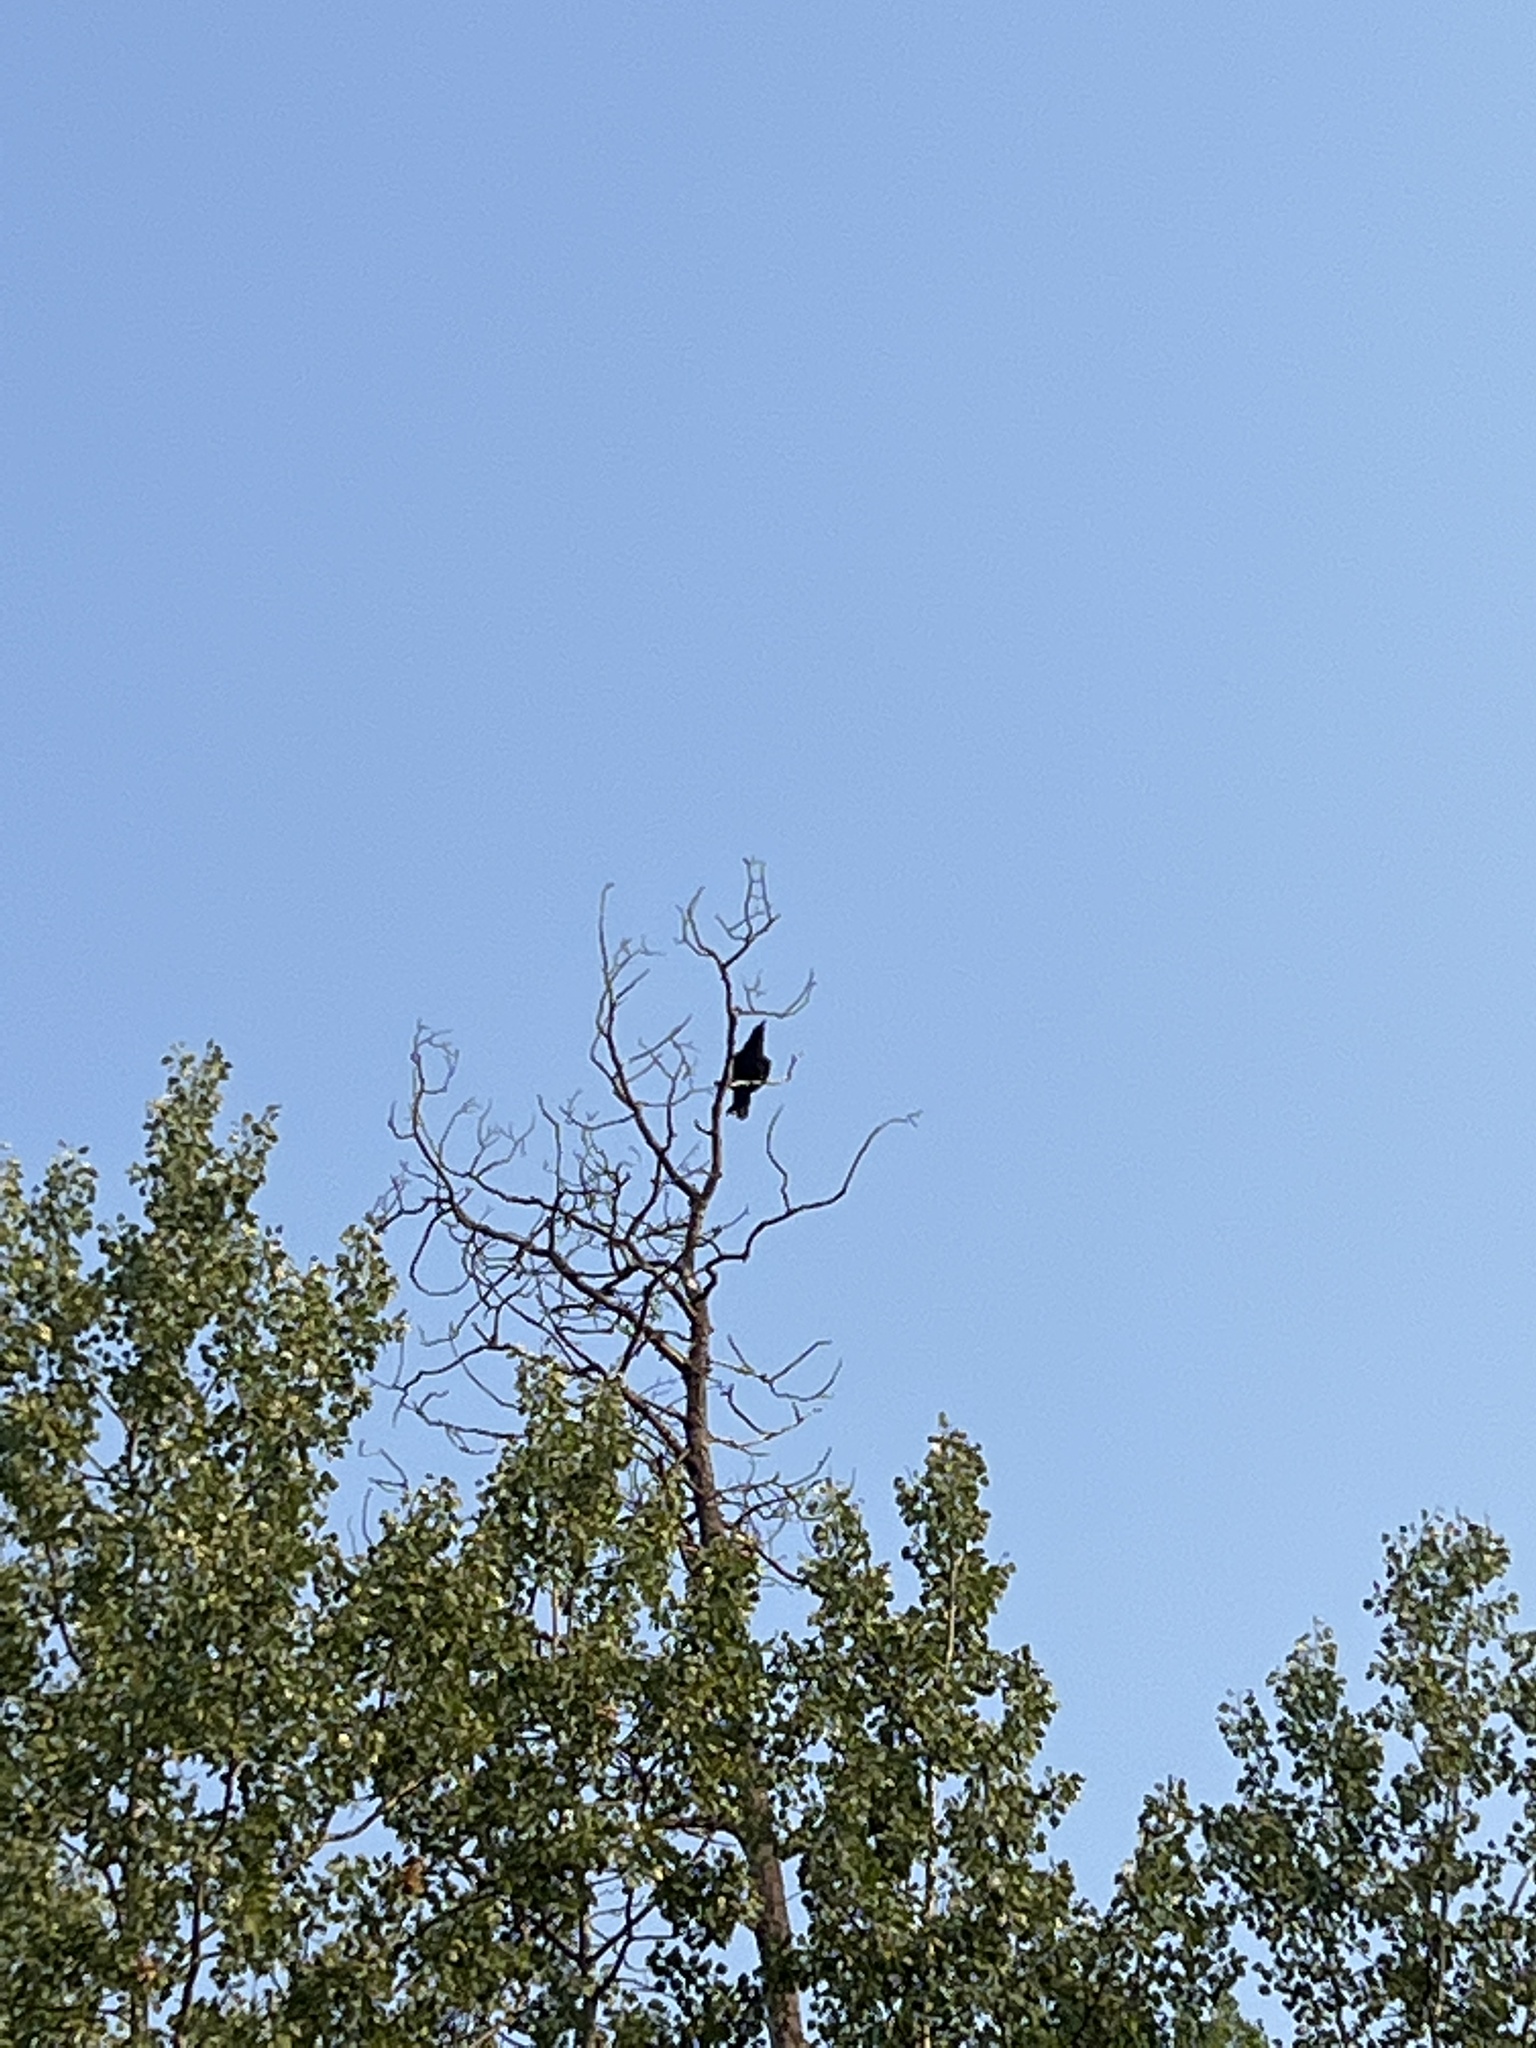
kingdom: Animalia
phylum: Chordata
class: Aves
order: Passeriformes
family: Corvidae
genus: Corvus
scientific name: Corvus corax
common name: Common raven
